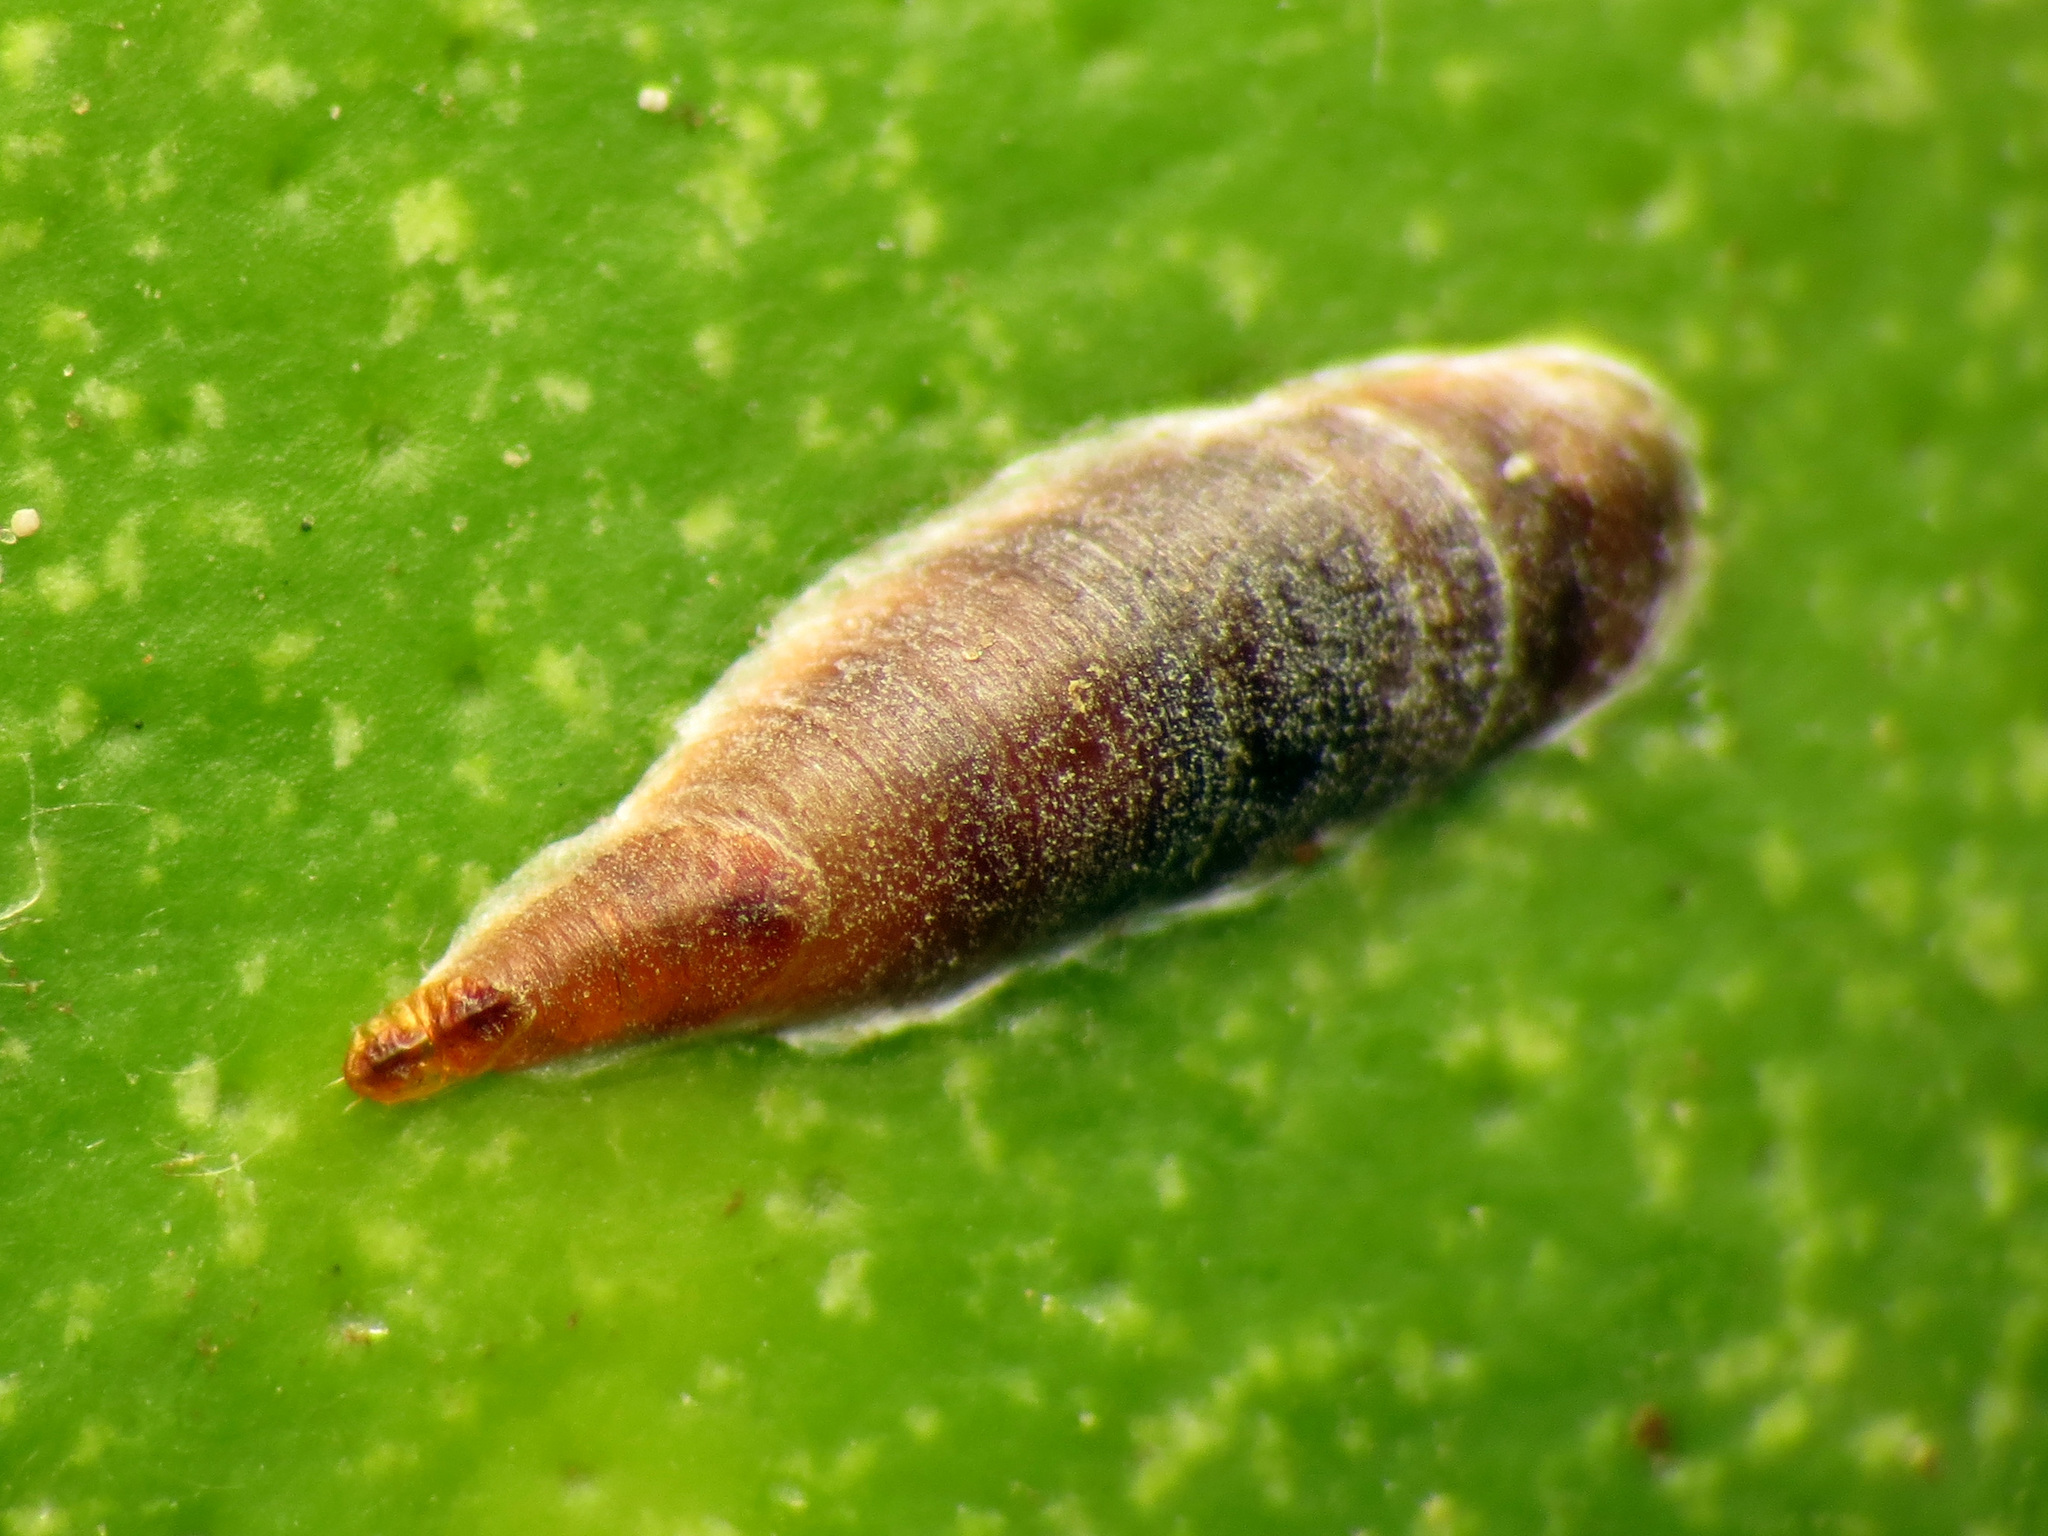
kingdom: Animalia
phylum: Arthropoda
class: Insecta
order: Hemiptera
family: Diaspididae
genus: Lepidosaphes
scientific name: Lepidosaphes beckii
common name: Purple scale
